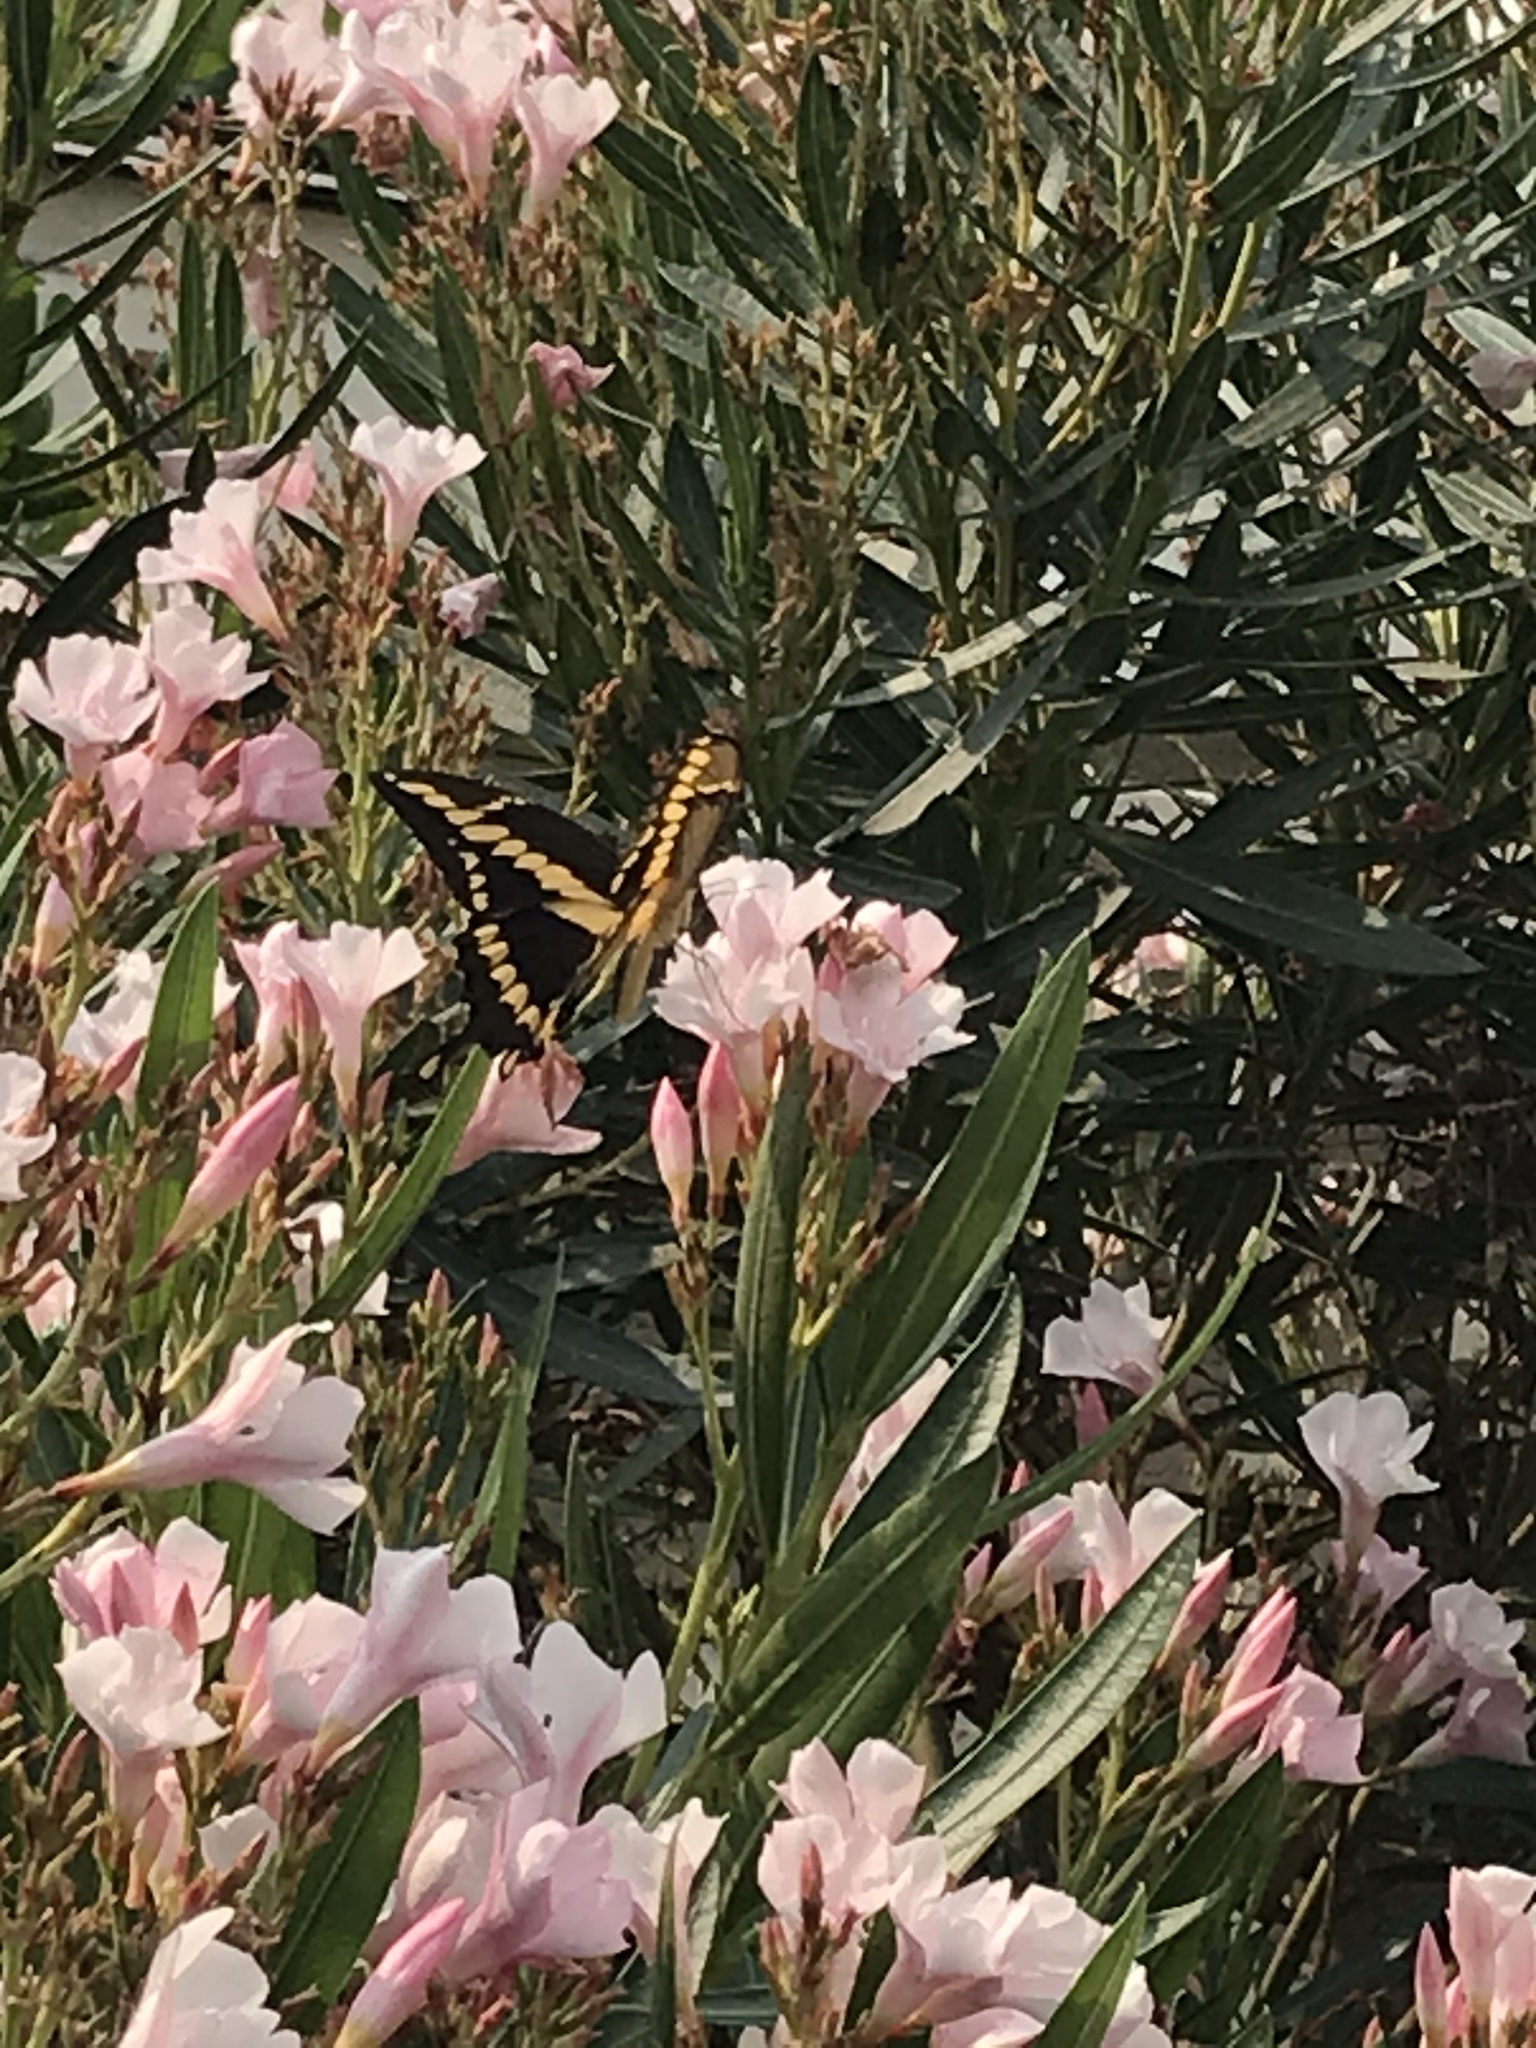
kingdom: Animalia
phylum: Arthropoda
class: Insecta
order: Lepidoptera
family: Papilionidae
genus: Papilio
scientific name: Papilio rumiko
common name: Western giant swallowtail
